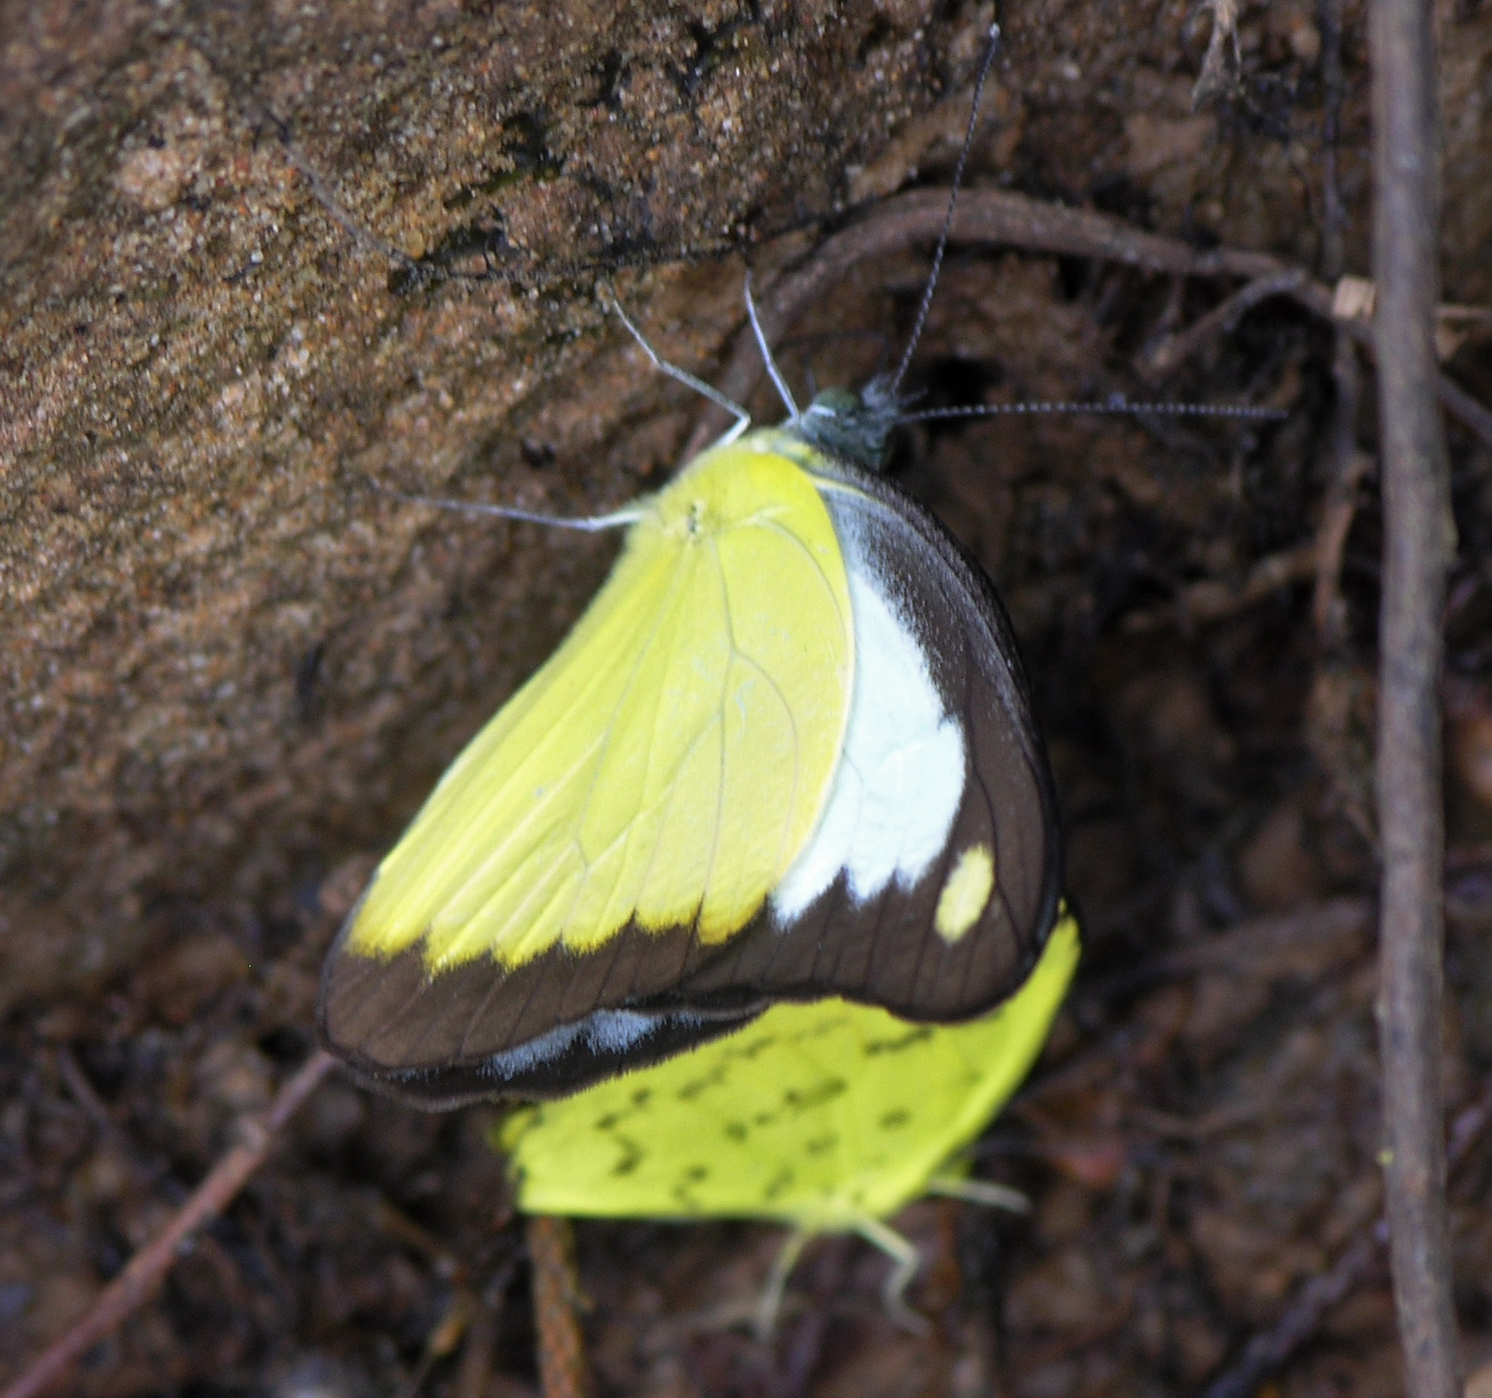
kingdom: Animalia
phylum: Arthropoda
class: Insecta
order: Lepidoptera
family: Pieridae
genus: Appias
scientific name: Appias lyncida
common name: Chocolate albatross
